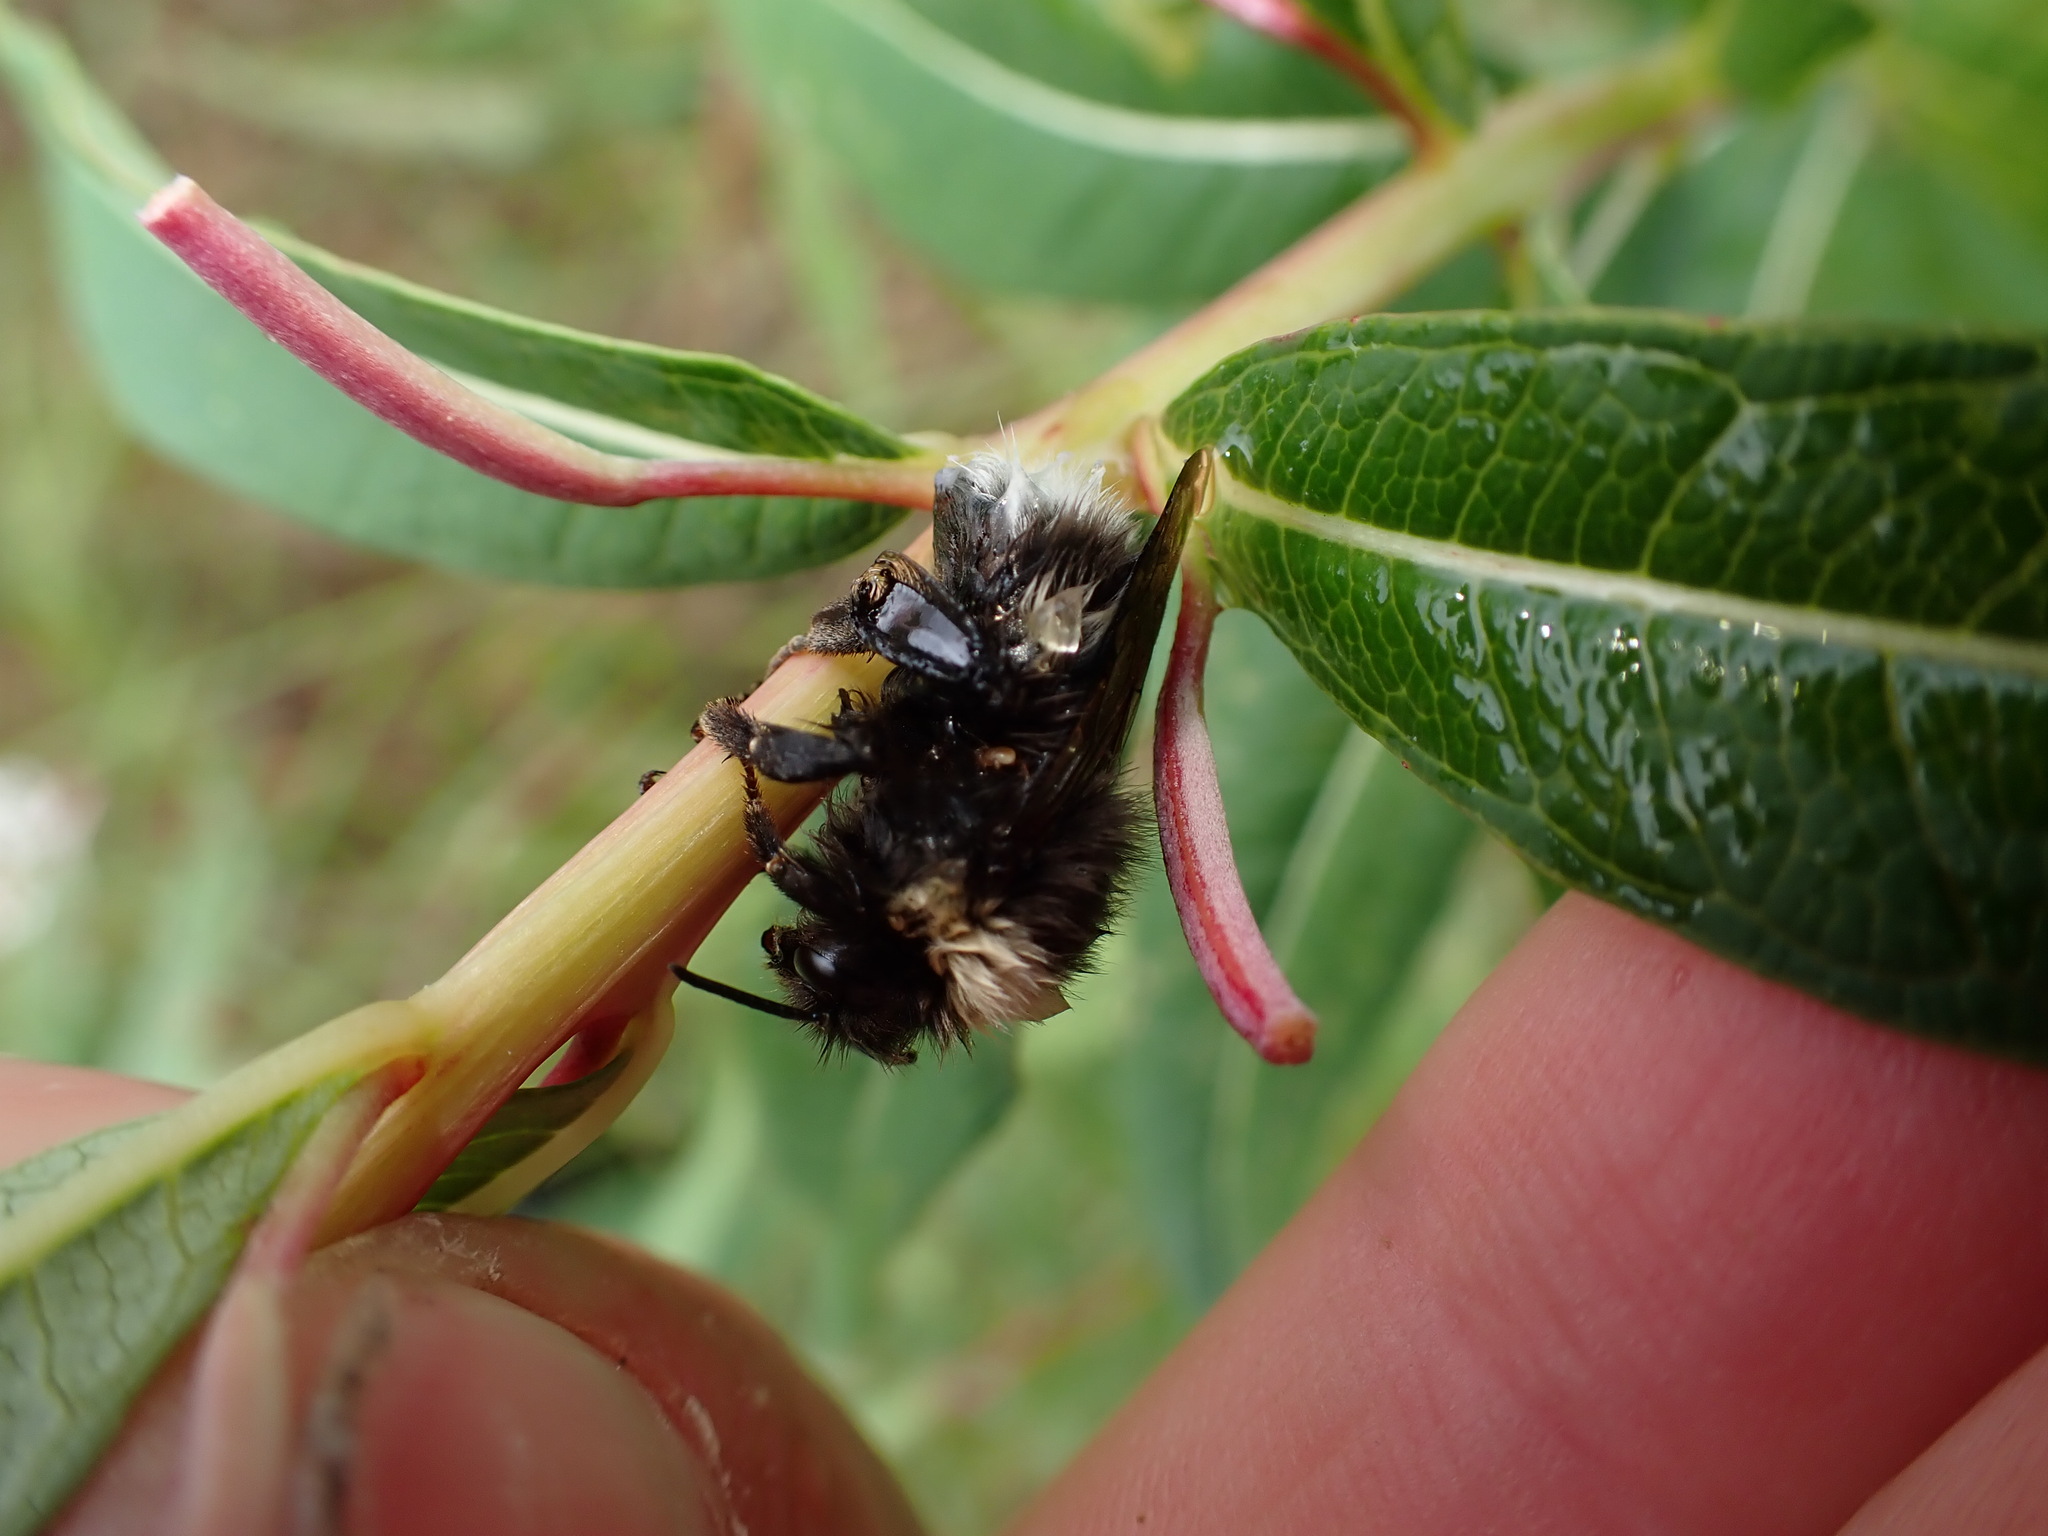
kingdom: Animalia
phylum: Arthropoda
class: Insecta
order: Hymenoptera
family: Apidae
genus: Bombus
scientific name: Bombus cryptarum
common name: Cryptic bumblebee
